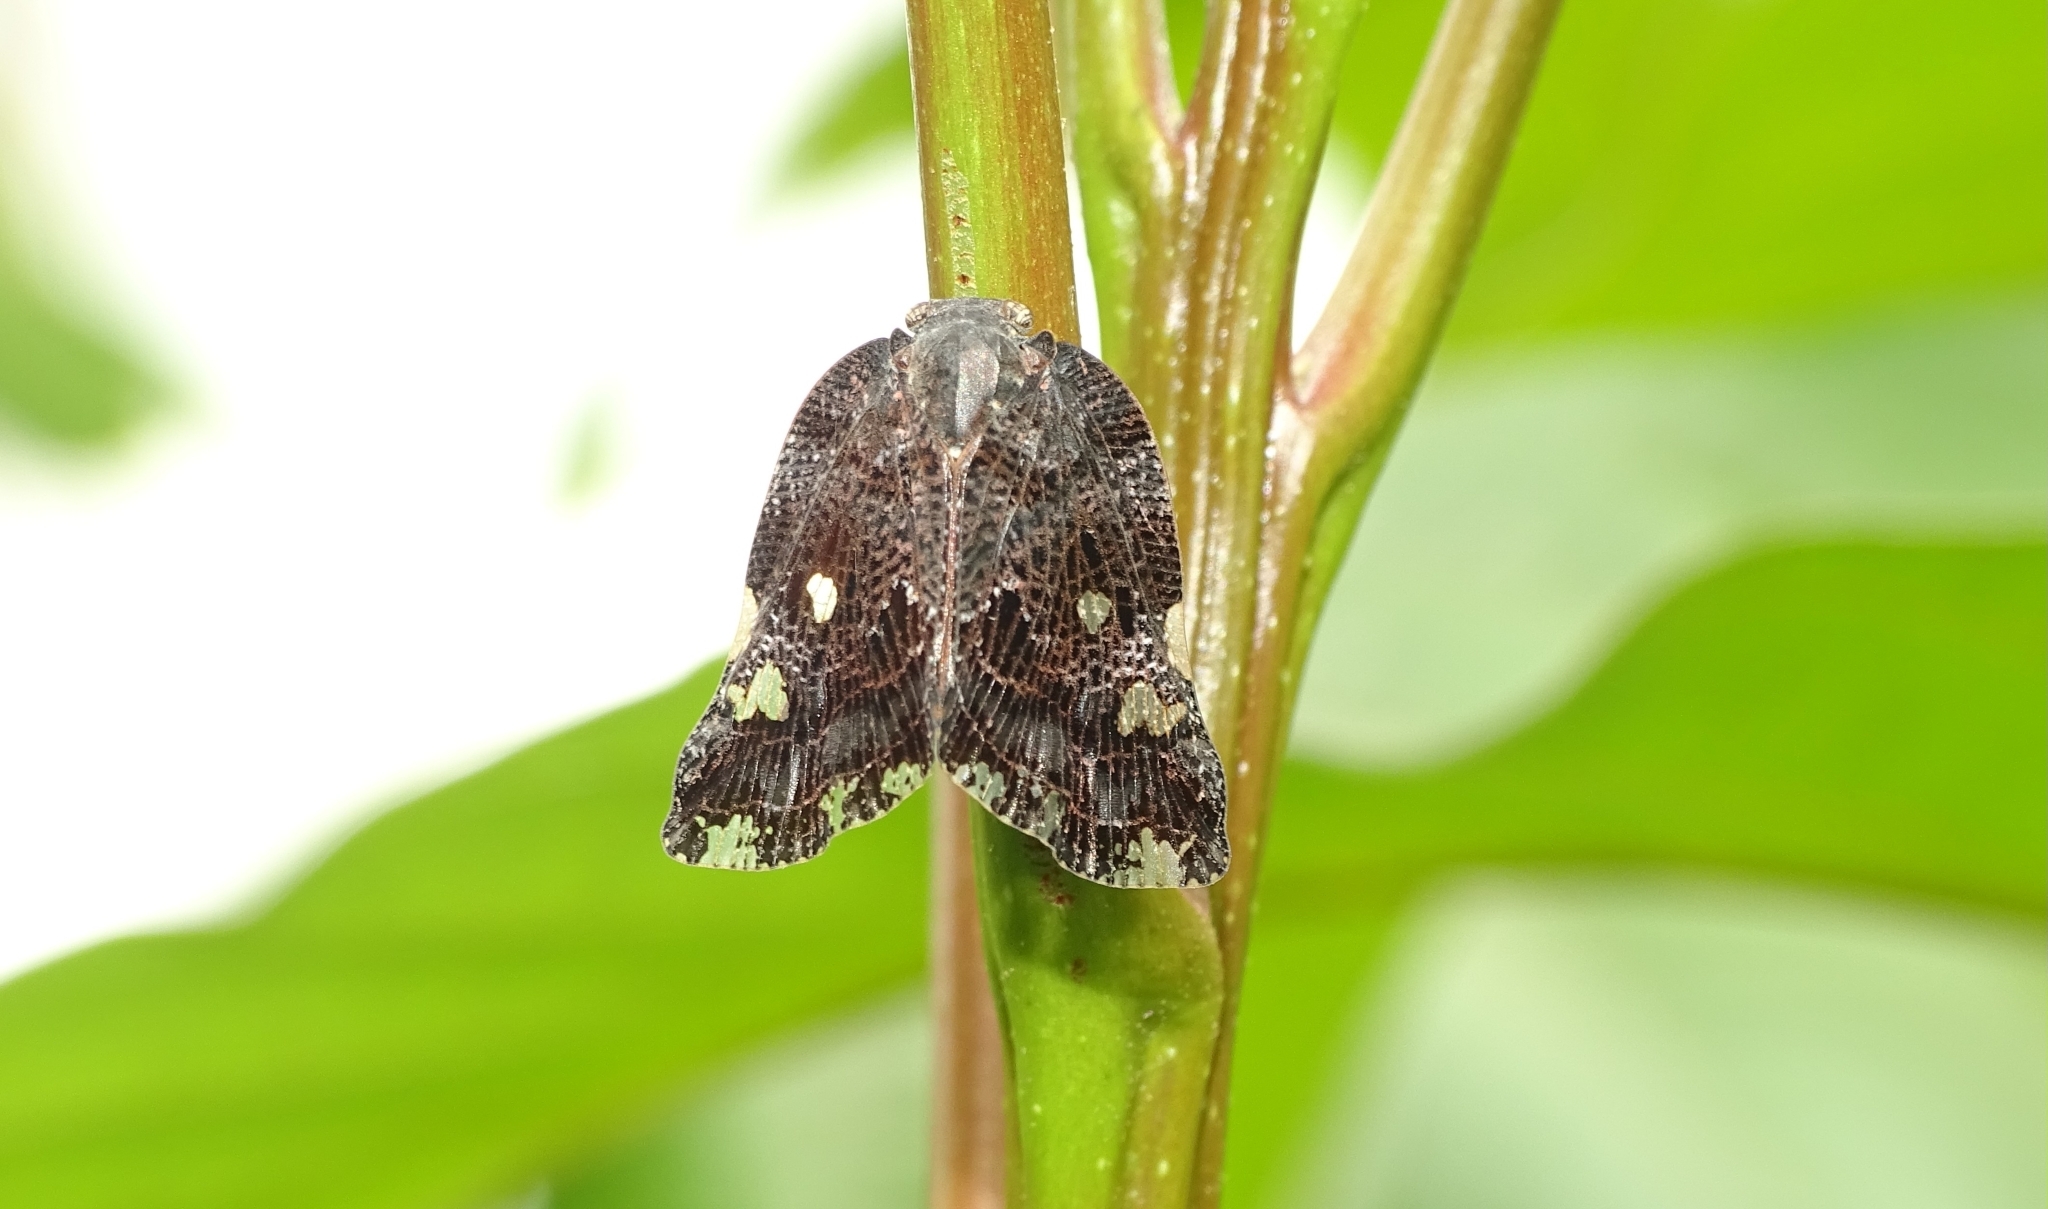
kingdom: Animalia
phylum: Arthropoda
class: Insecta
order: Hemiptera
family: Ricaniidae
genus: Ricania
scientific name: Ricania speculum
